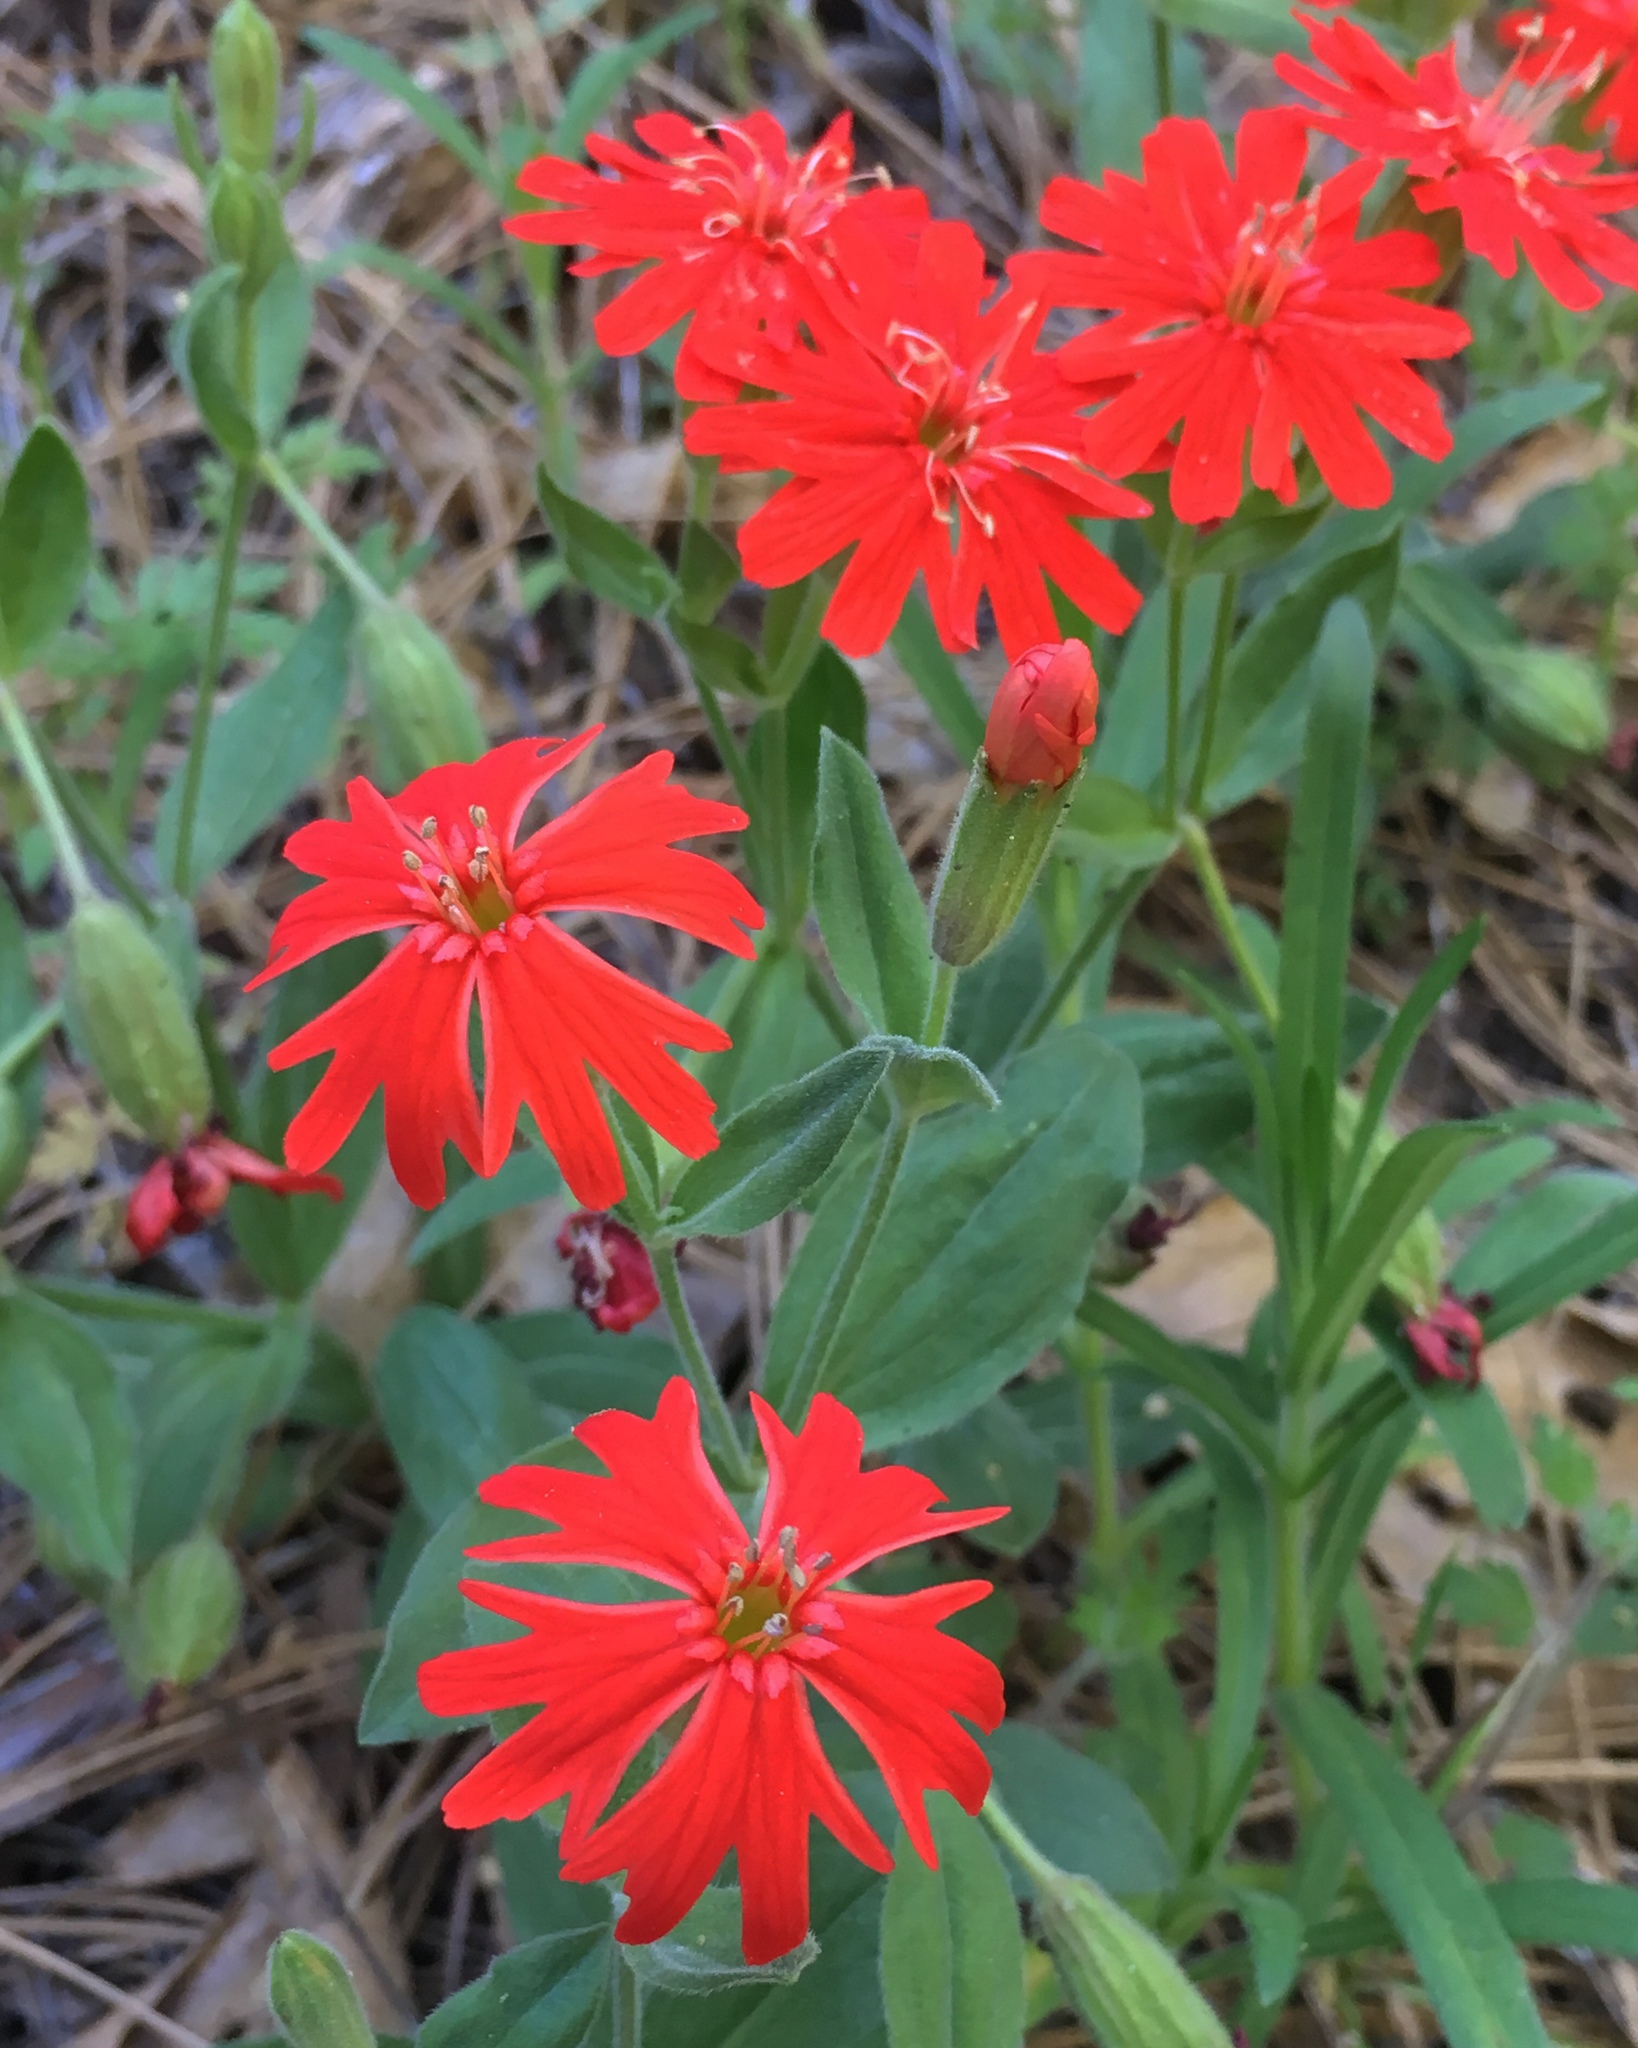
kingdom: Plantae
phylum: Tracheophyta
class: Magnoliopsida
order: Caryophyllales
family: Caryophyllaceae
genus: Silene
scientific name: Silene laciniata
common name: Indian-pink
